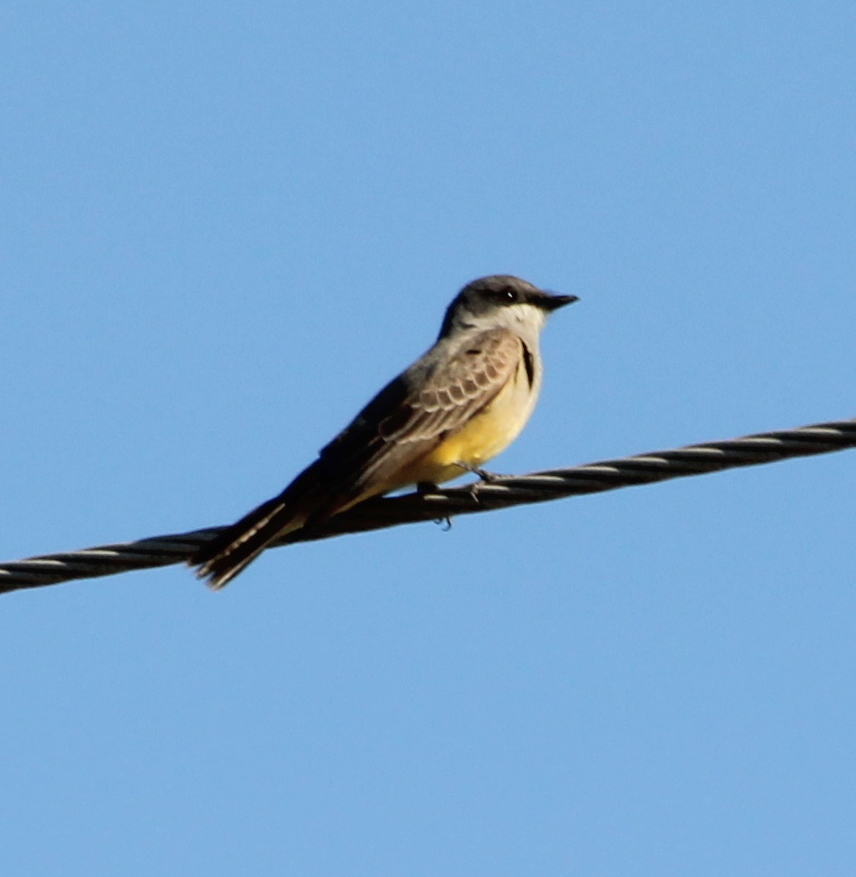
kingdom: Animalia
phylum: Chordata
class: Aves
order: Passeriformes
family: Tyrannidae
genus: Tyrannus
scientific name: Tyrannus vociferans
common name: Cassin's kingbird
